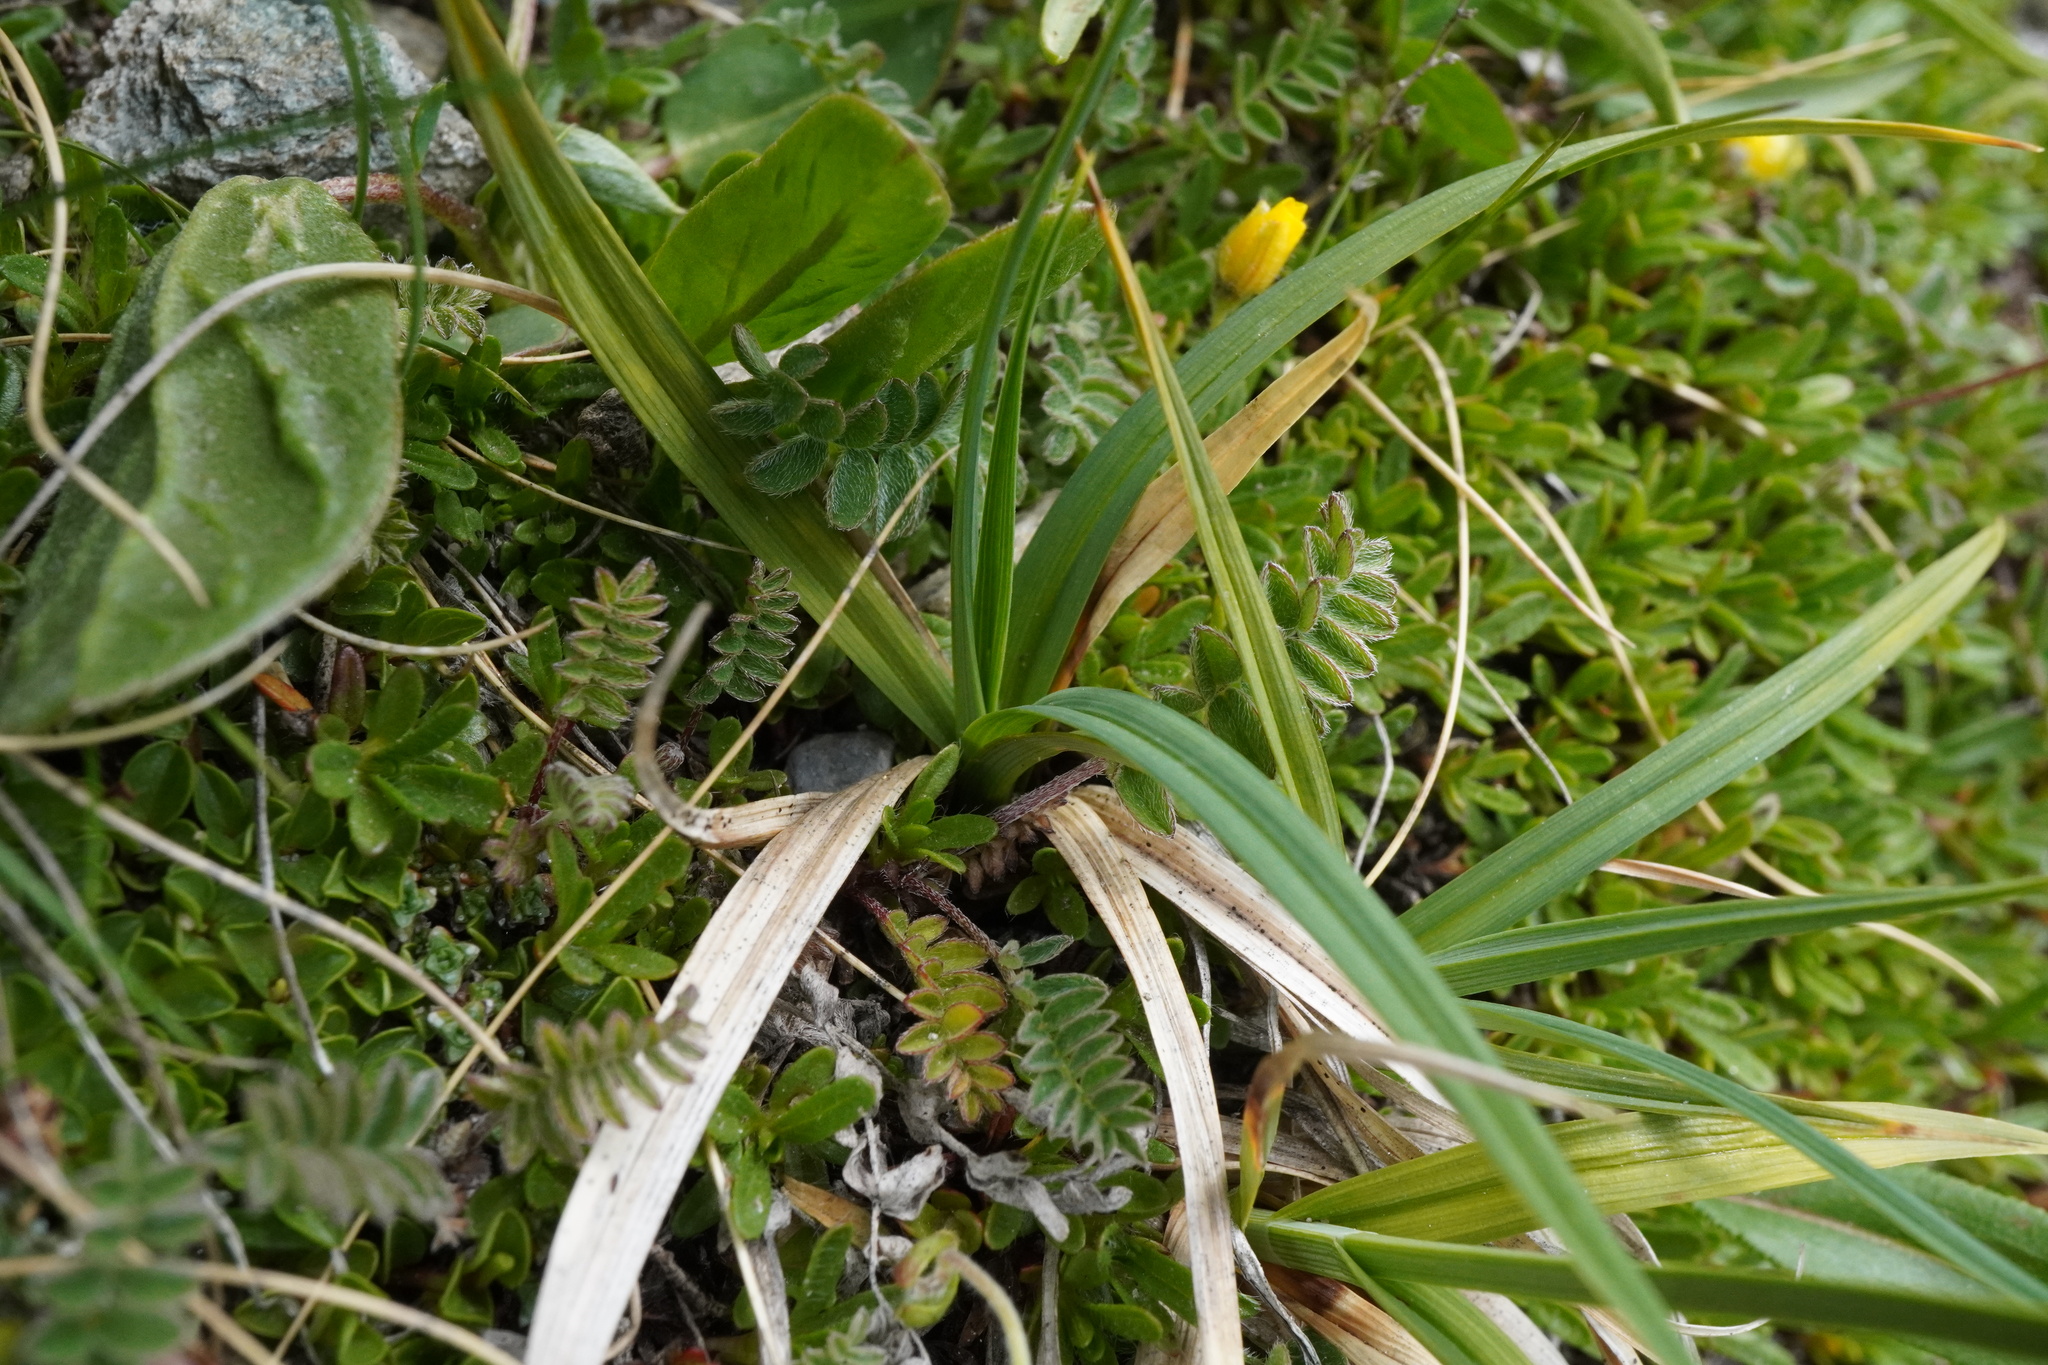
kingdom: Plantae
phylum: Tracheophyta
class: Liliopsida
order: Poales
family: Cyperaceae
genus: Carex
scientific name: Carex atrata
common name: Black alpine sedge
